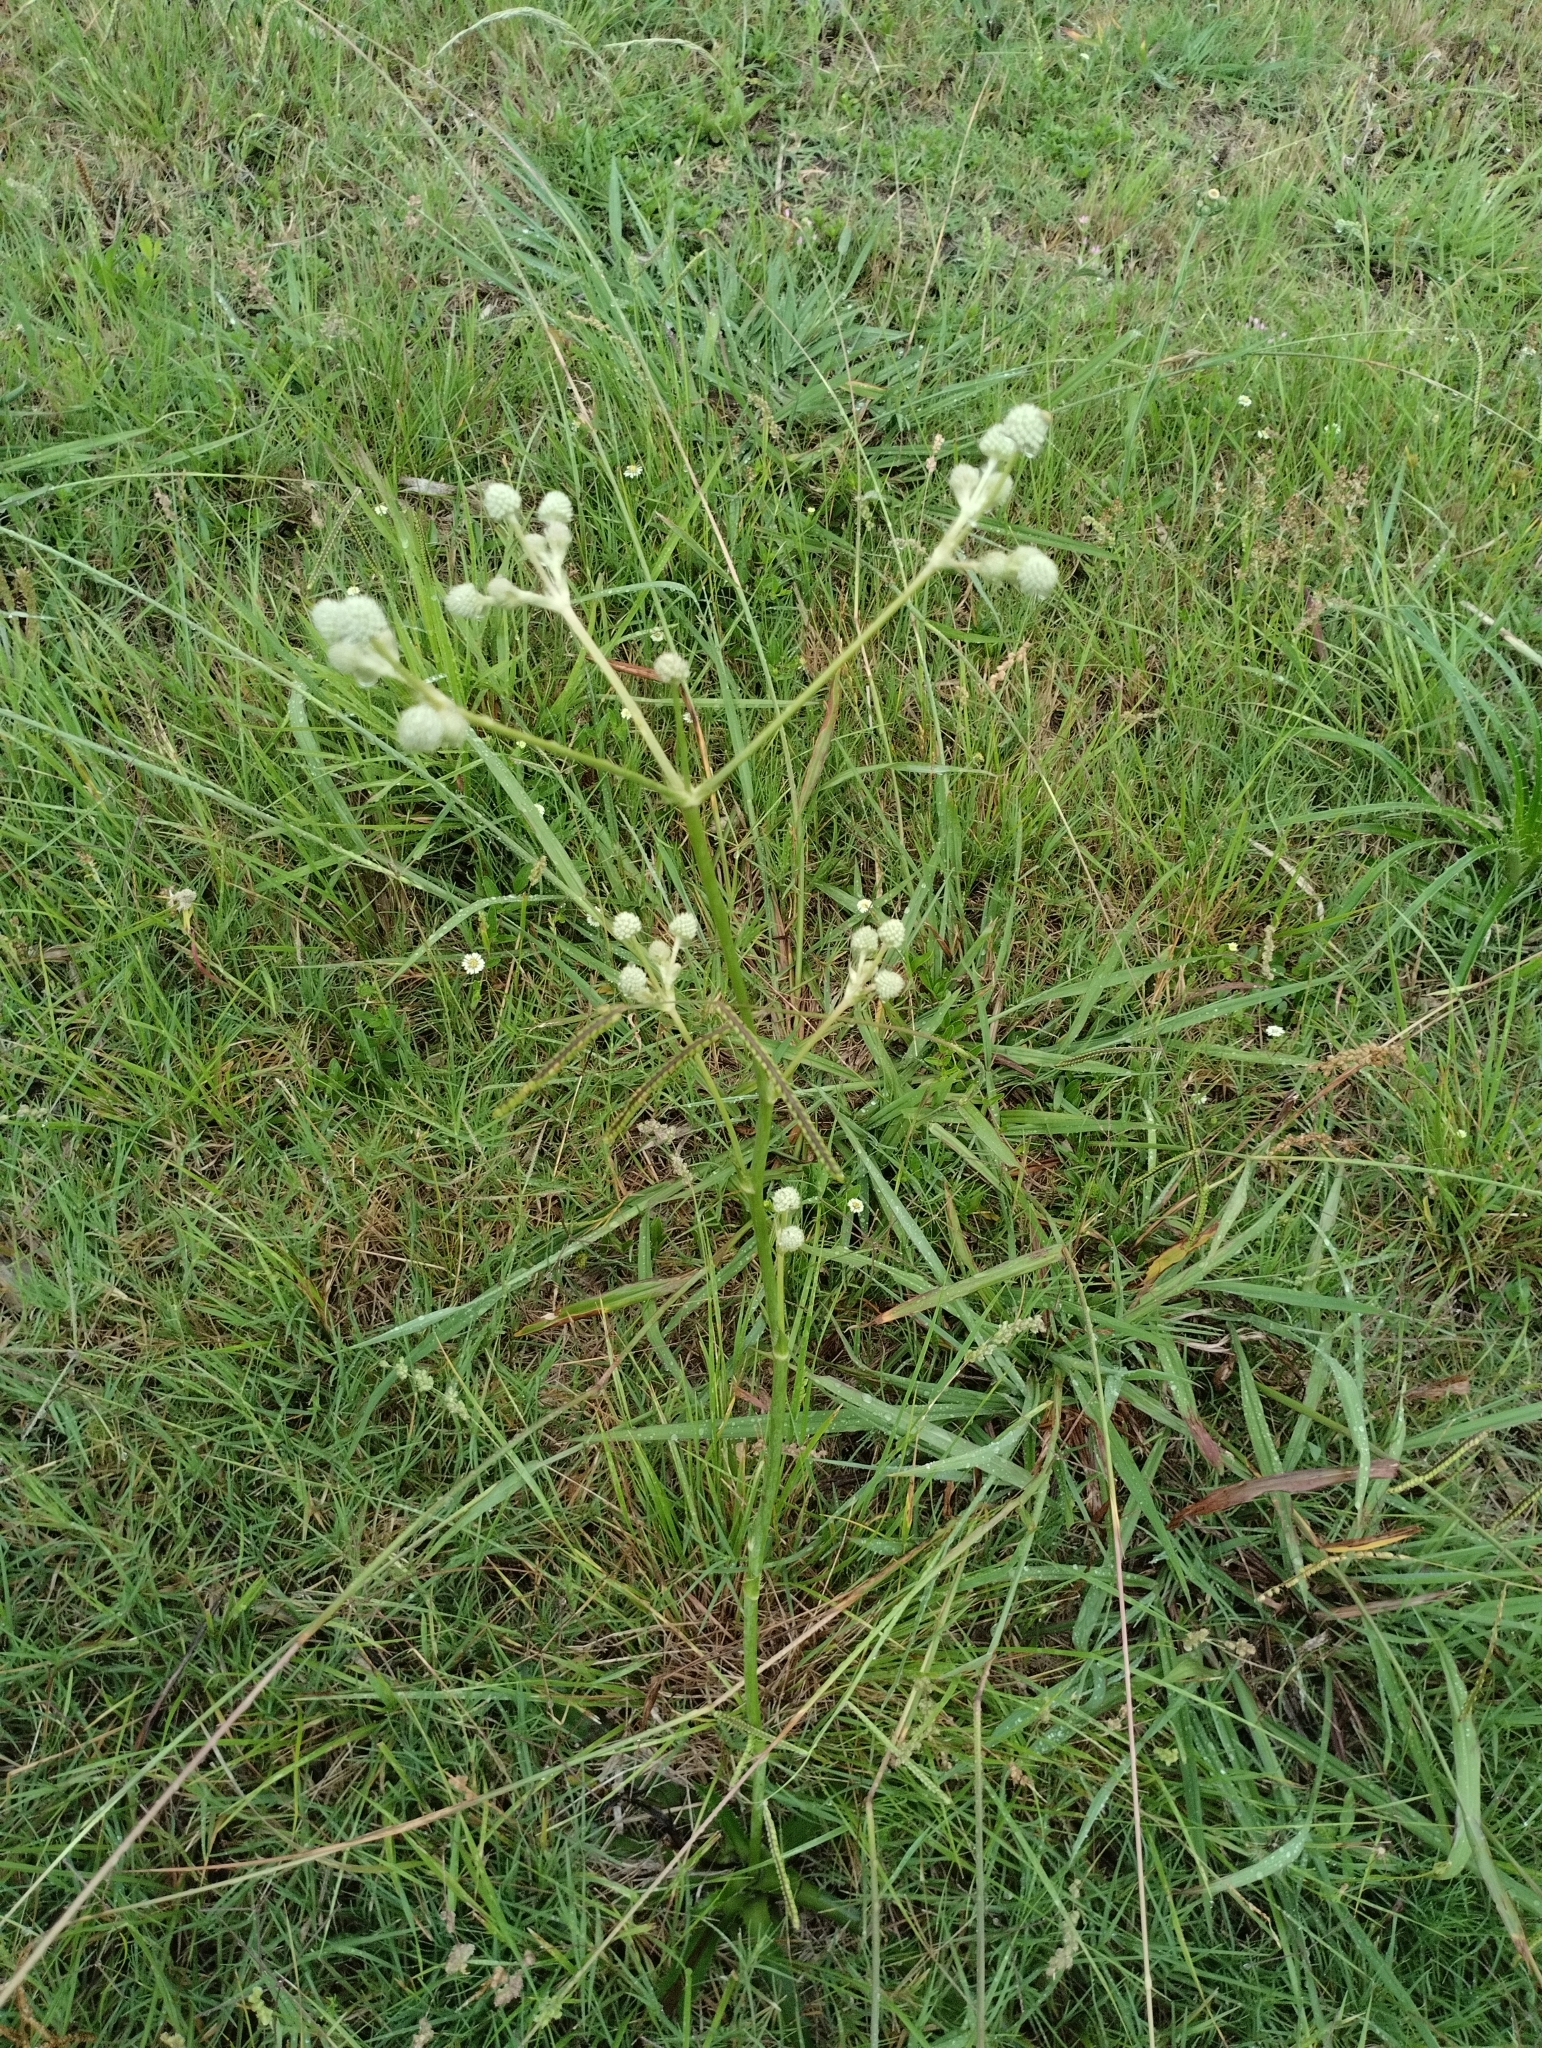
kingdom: Plantae
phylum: Tracheophyta
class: Magnoliopsida
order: Apiales
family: Apiaceae
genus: Eryngium
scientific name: Eryngium elegans
